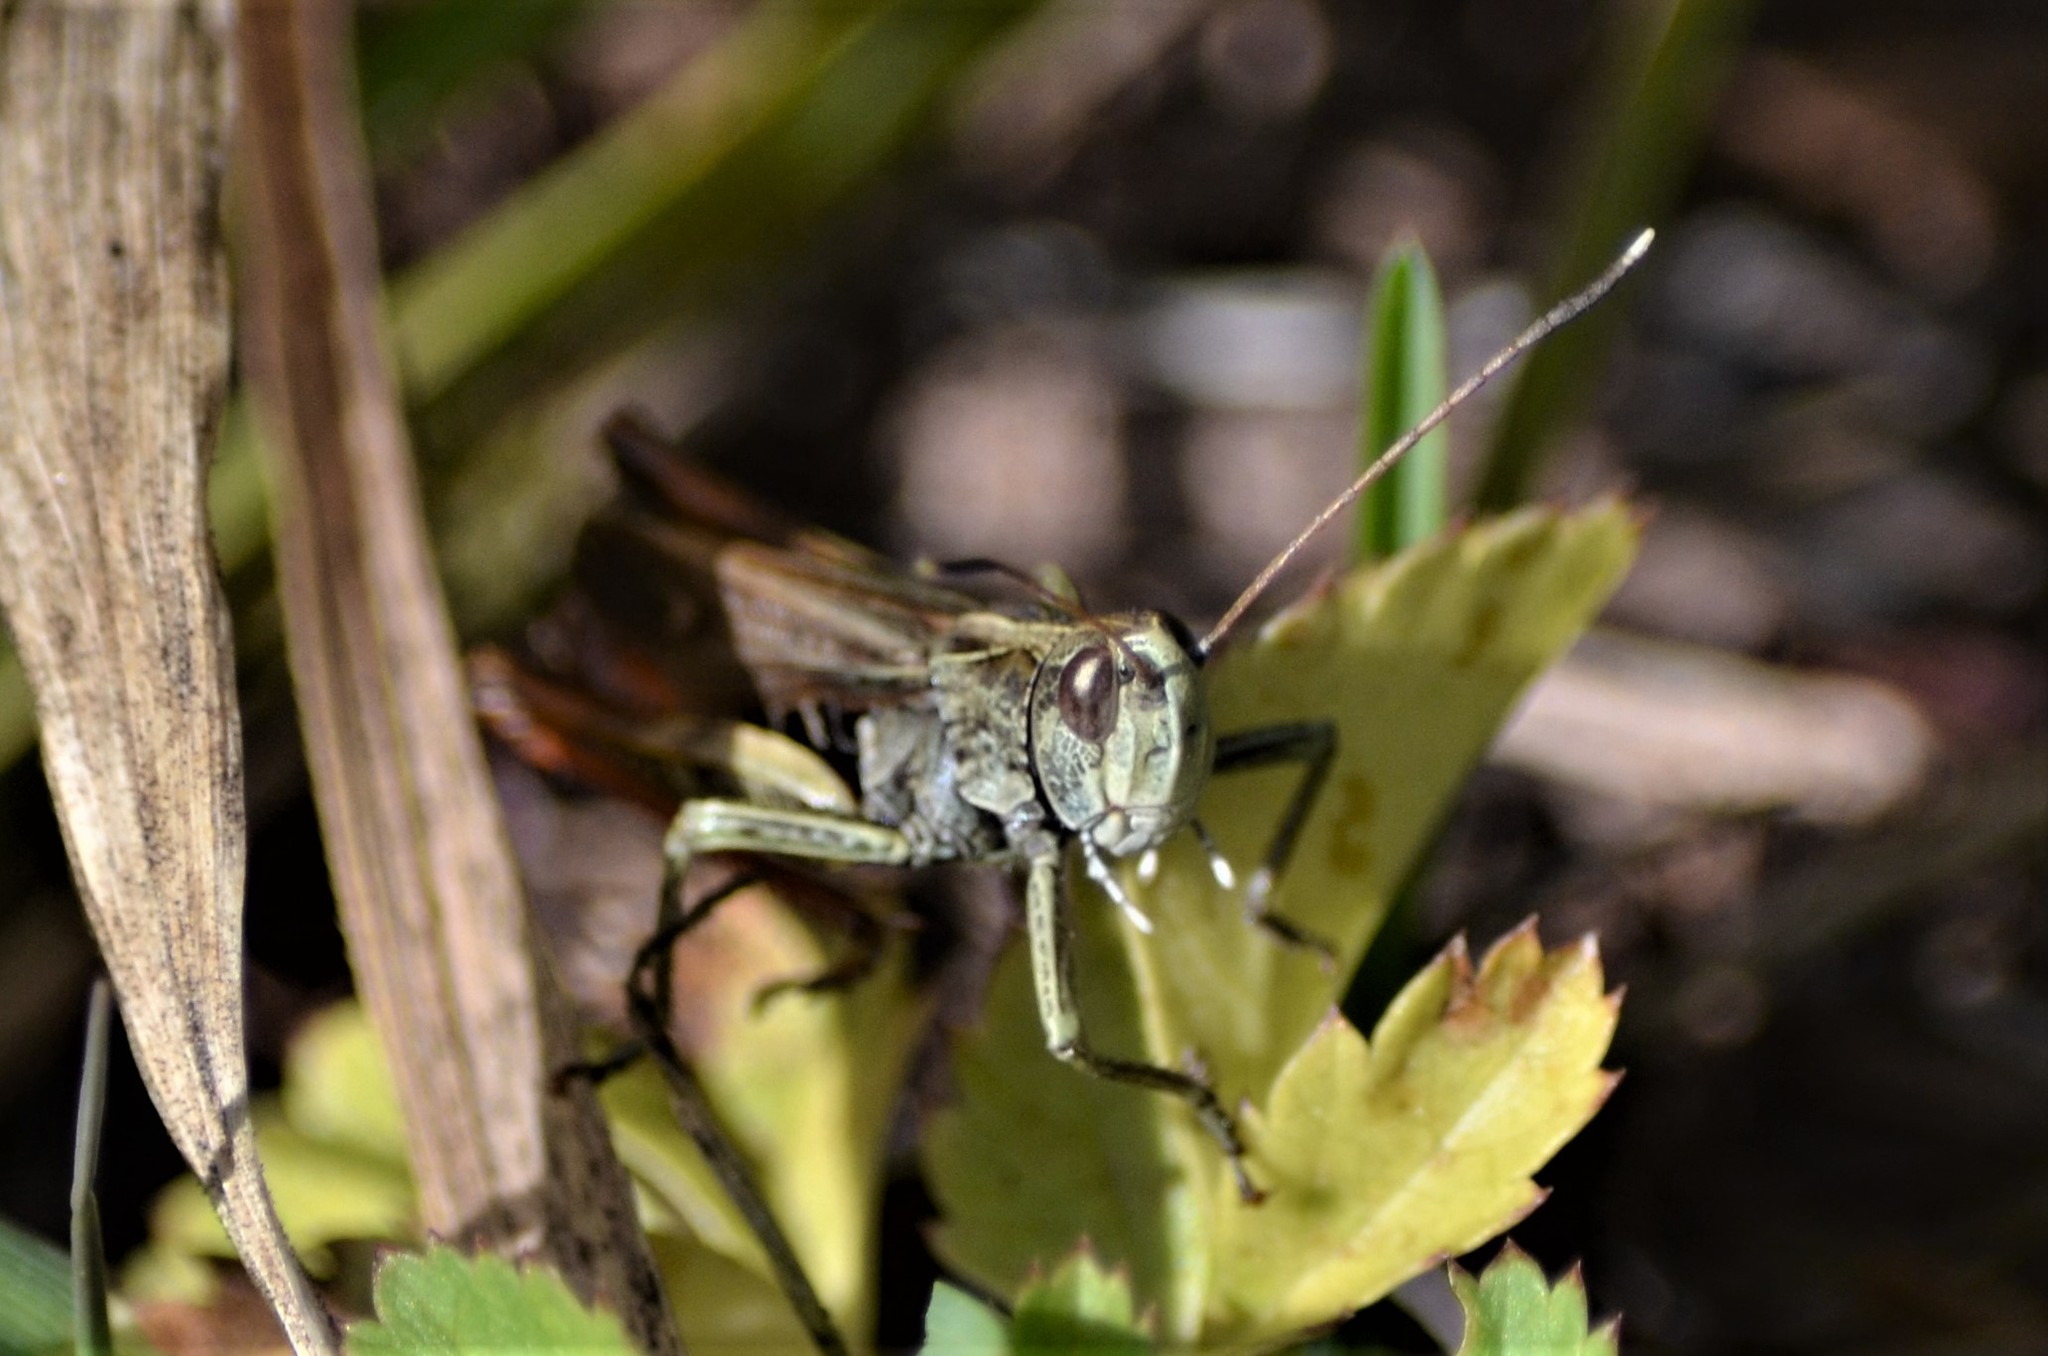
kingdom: Animalia
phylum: Arthropoda
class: Insecta
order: Orthoptera
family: Acrididae
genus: Gomphocerippus
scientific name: Gomphocerippus rufus
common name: Rufous grasshopper
